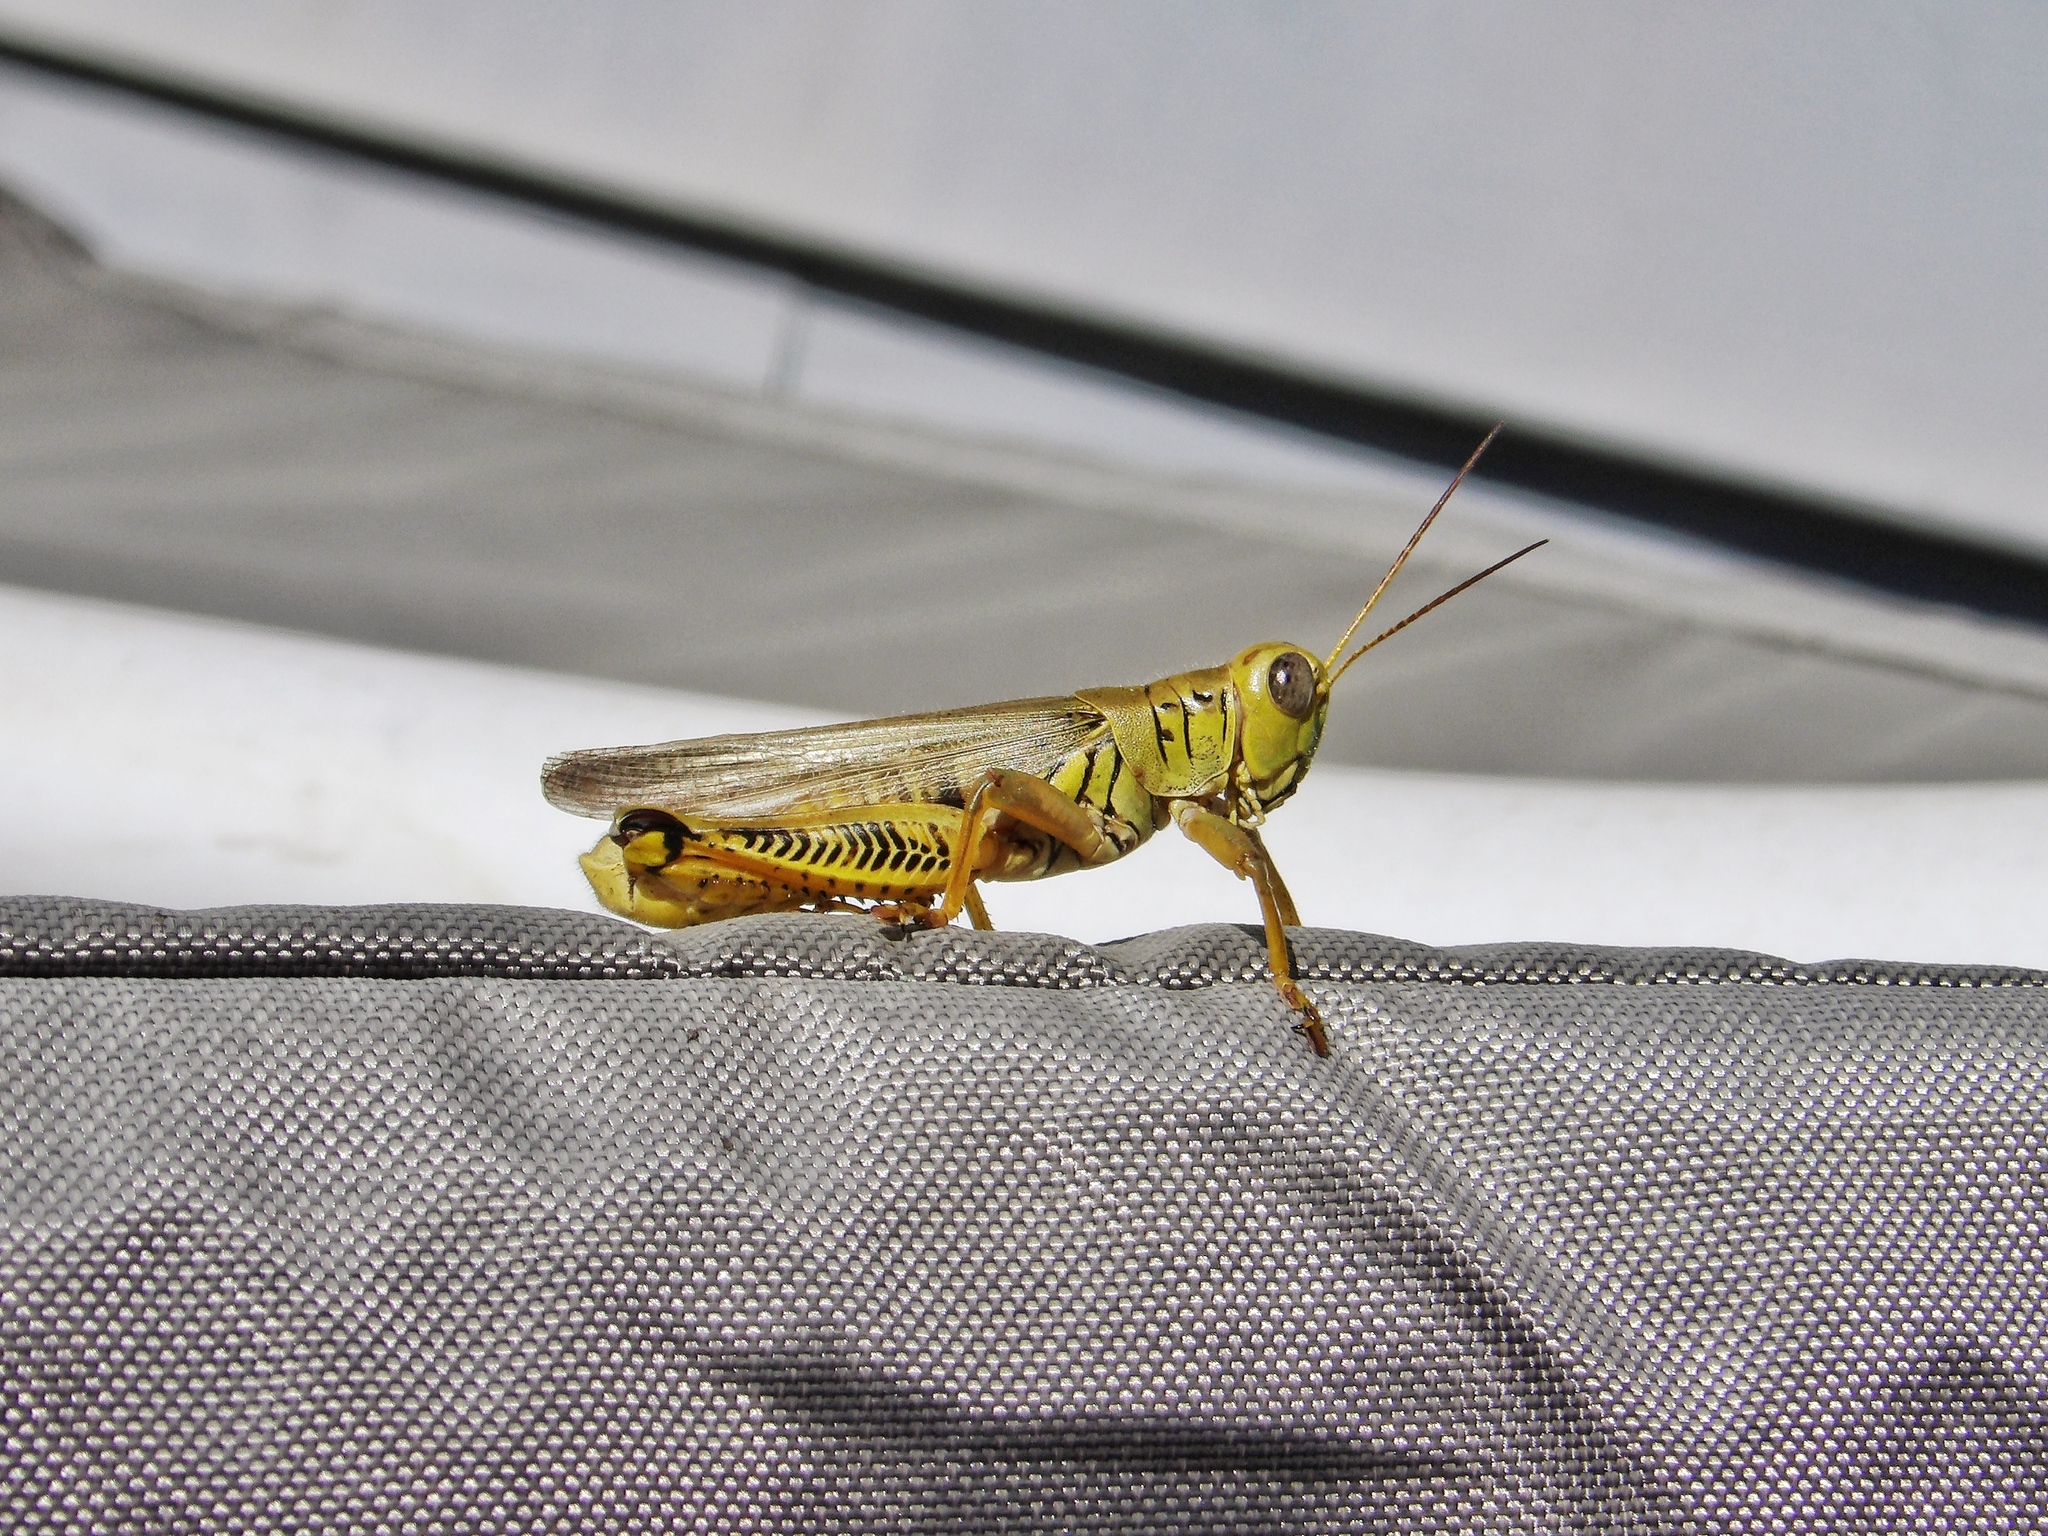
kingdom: Animalia
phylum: Arthropoda
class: Insecta
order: Orthoptera
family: Acrididae
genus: Melanoplus
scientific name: Melanoplus differentialis
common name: Differential grasshopper
